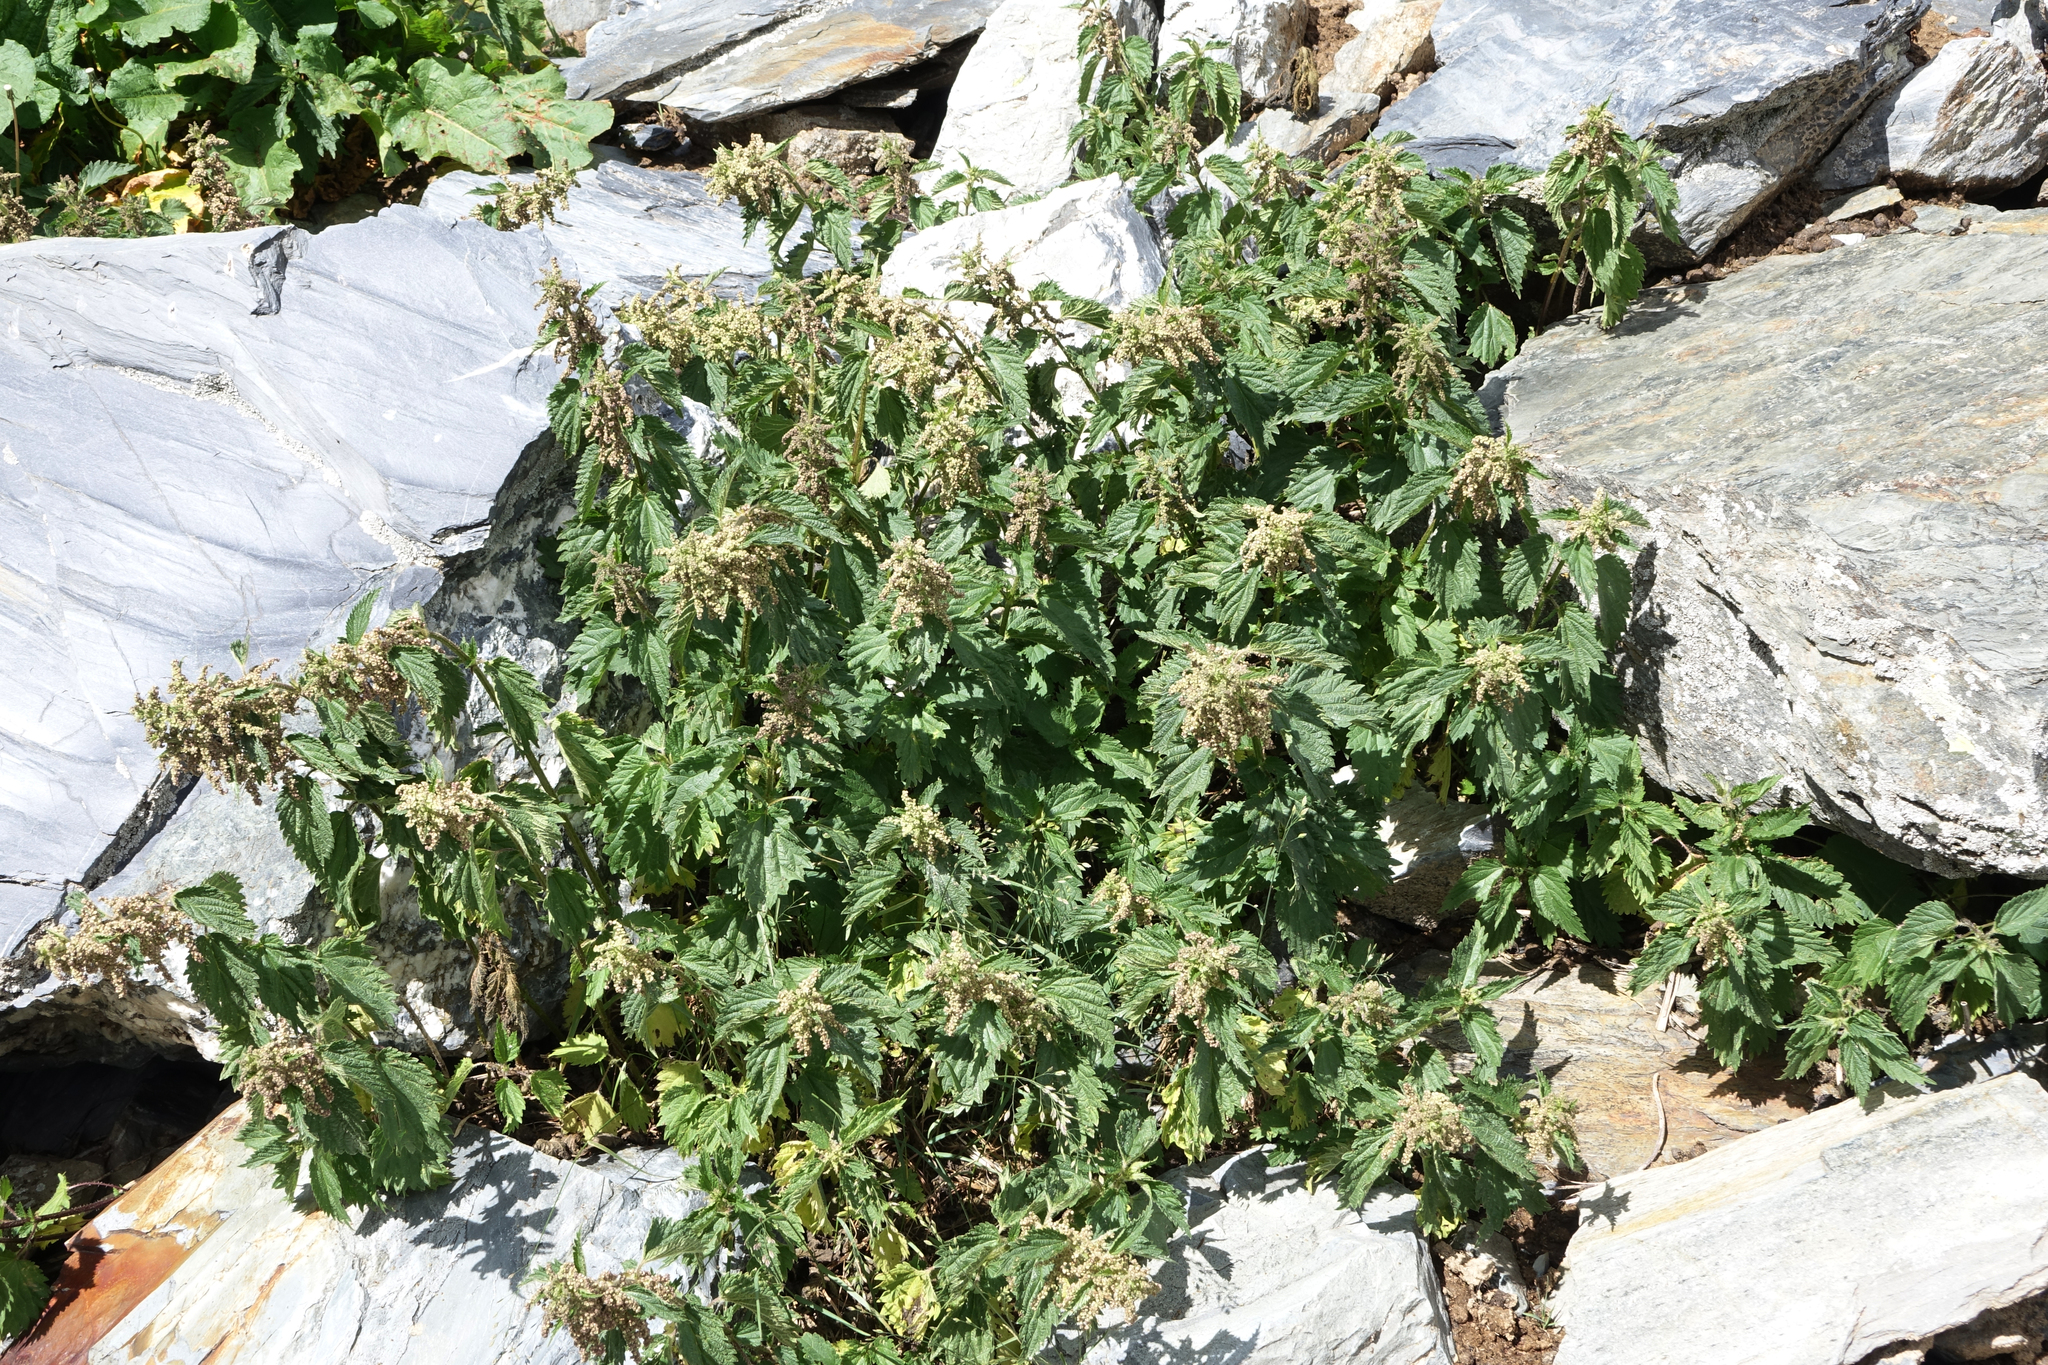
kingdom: Plantae
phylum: Tracheophyta
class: Magnoliopsida
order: Rosales
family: Urticaceae
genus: Urtica
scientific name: Urtica dioica
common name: Common nettle
